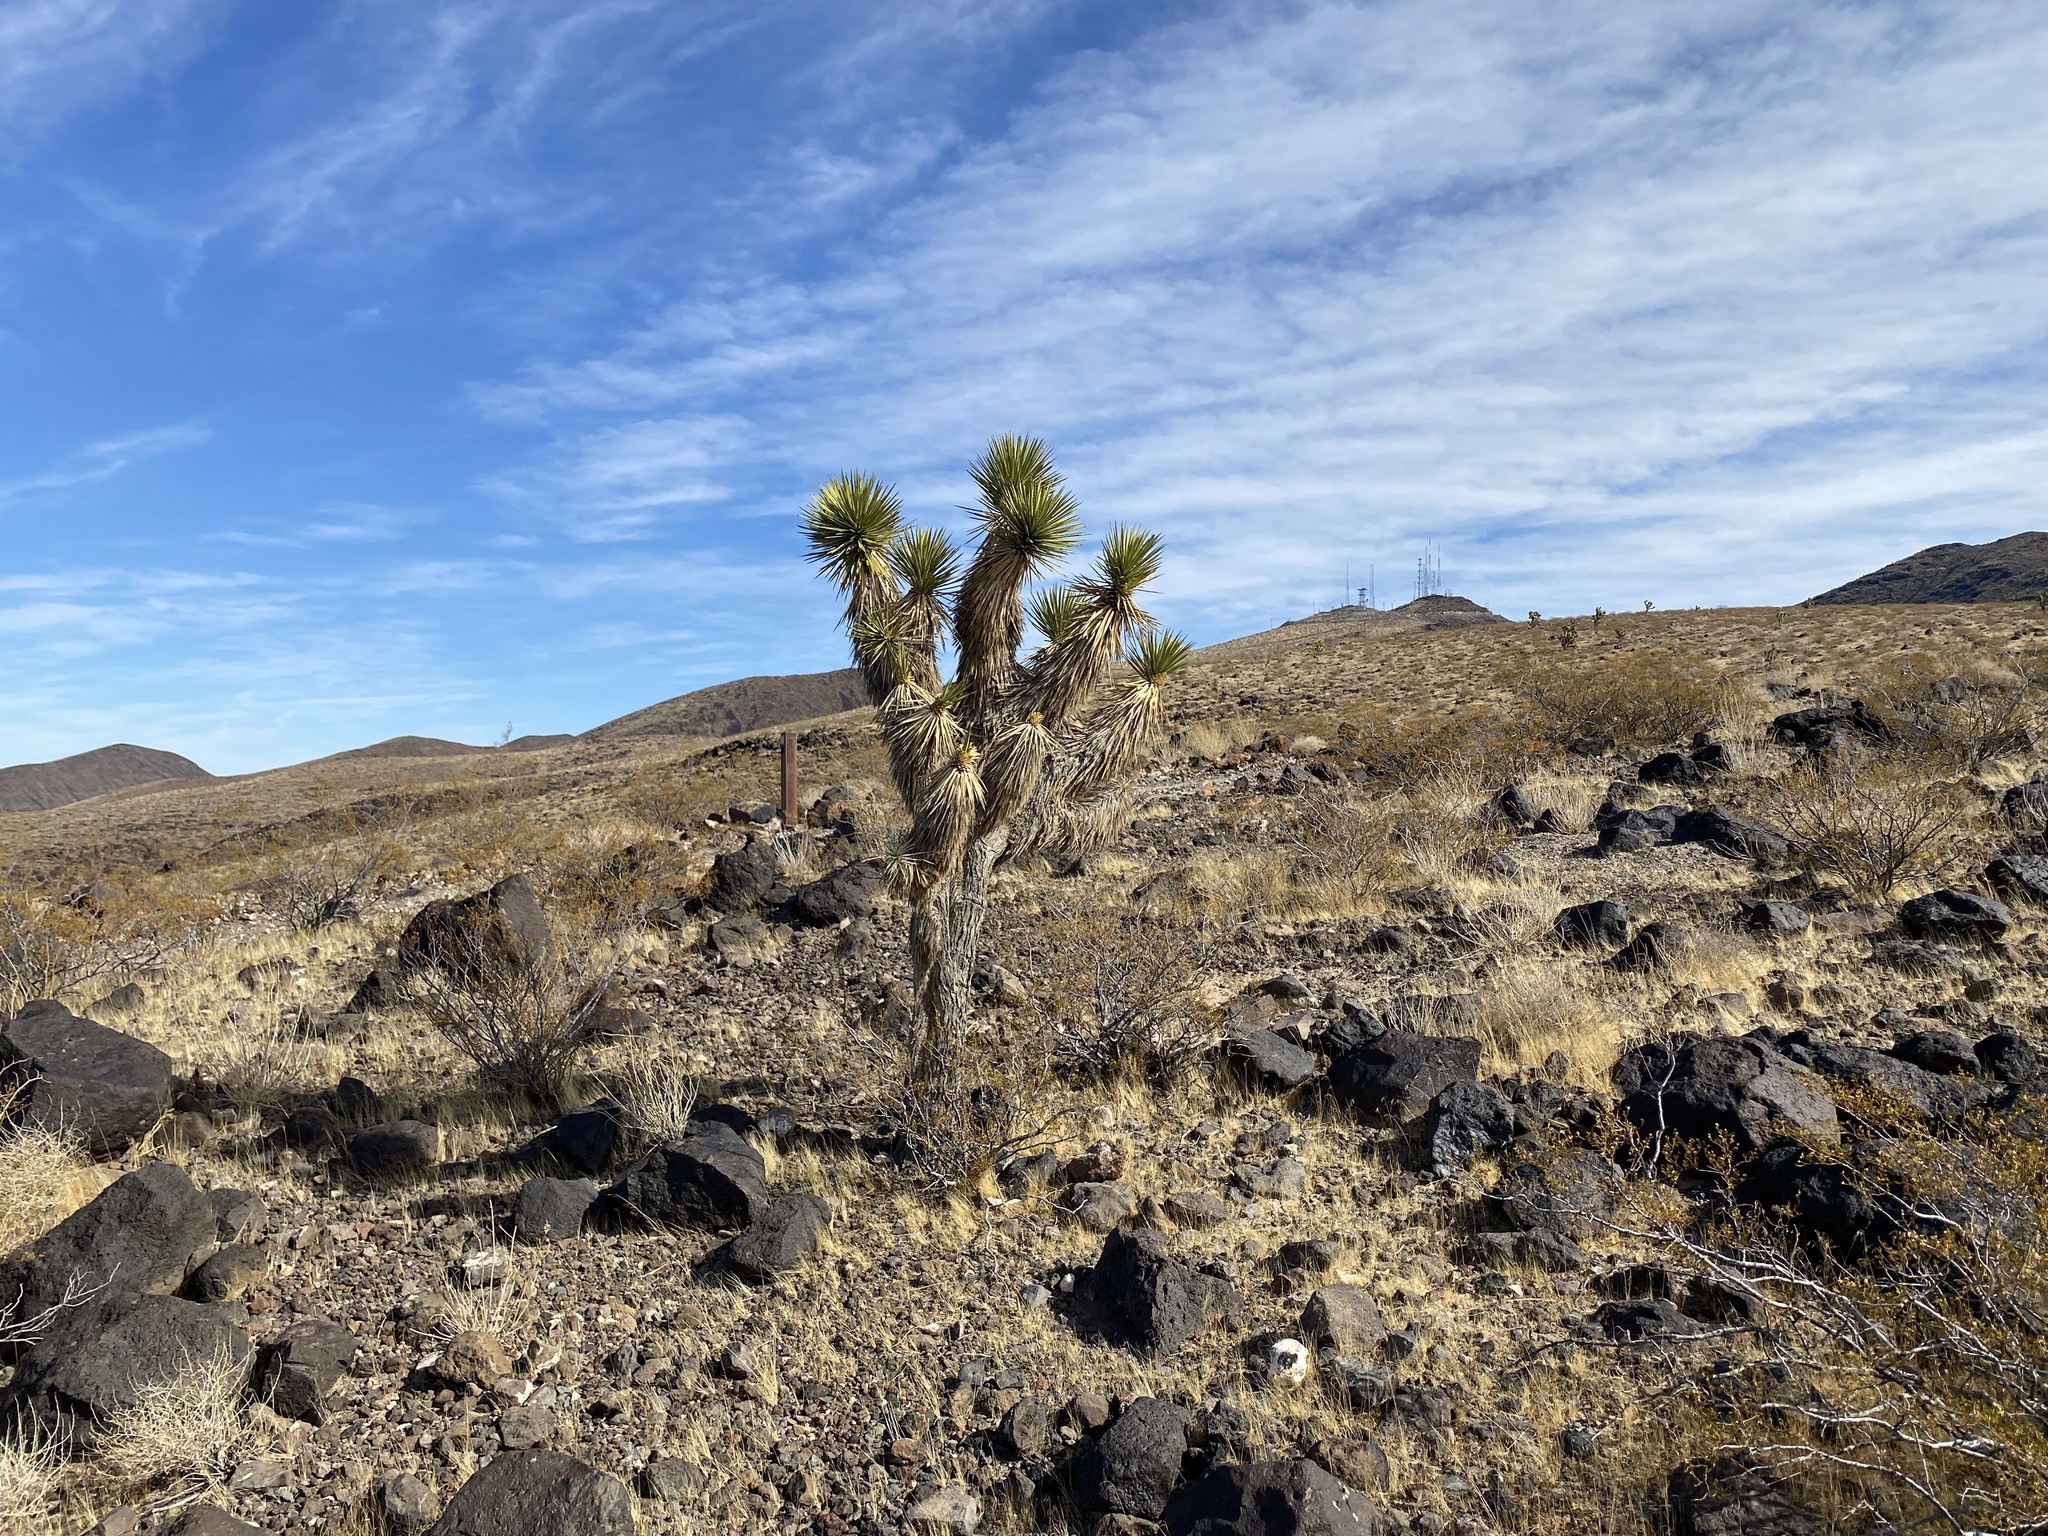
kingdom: Plantae
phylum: Tracheophyta
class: Liliopsida
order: Asparagales
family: Asparagaceae
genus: Yucca
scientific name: Yucca brevifolia
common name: Joshua tree
